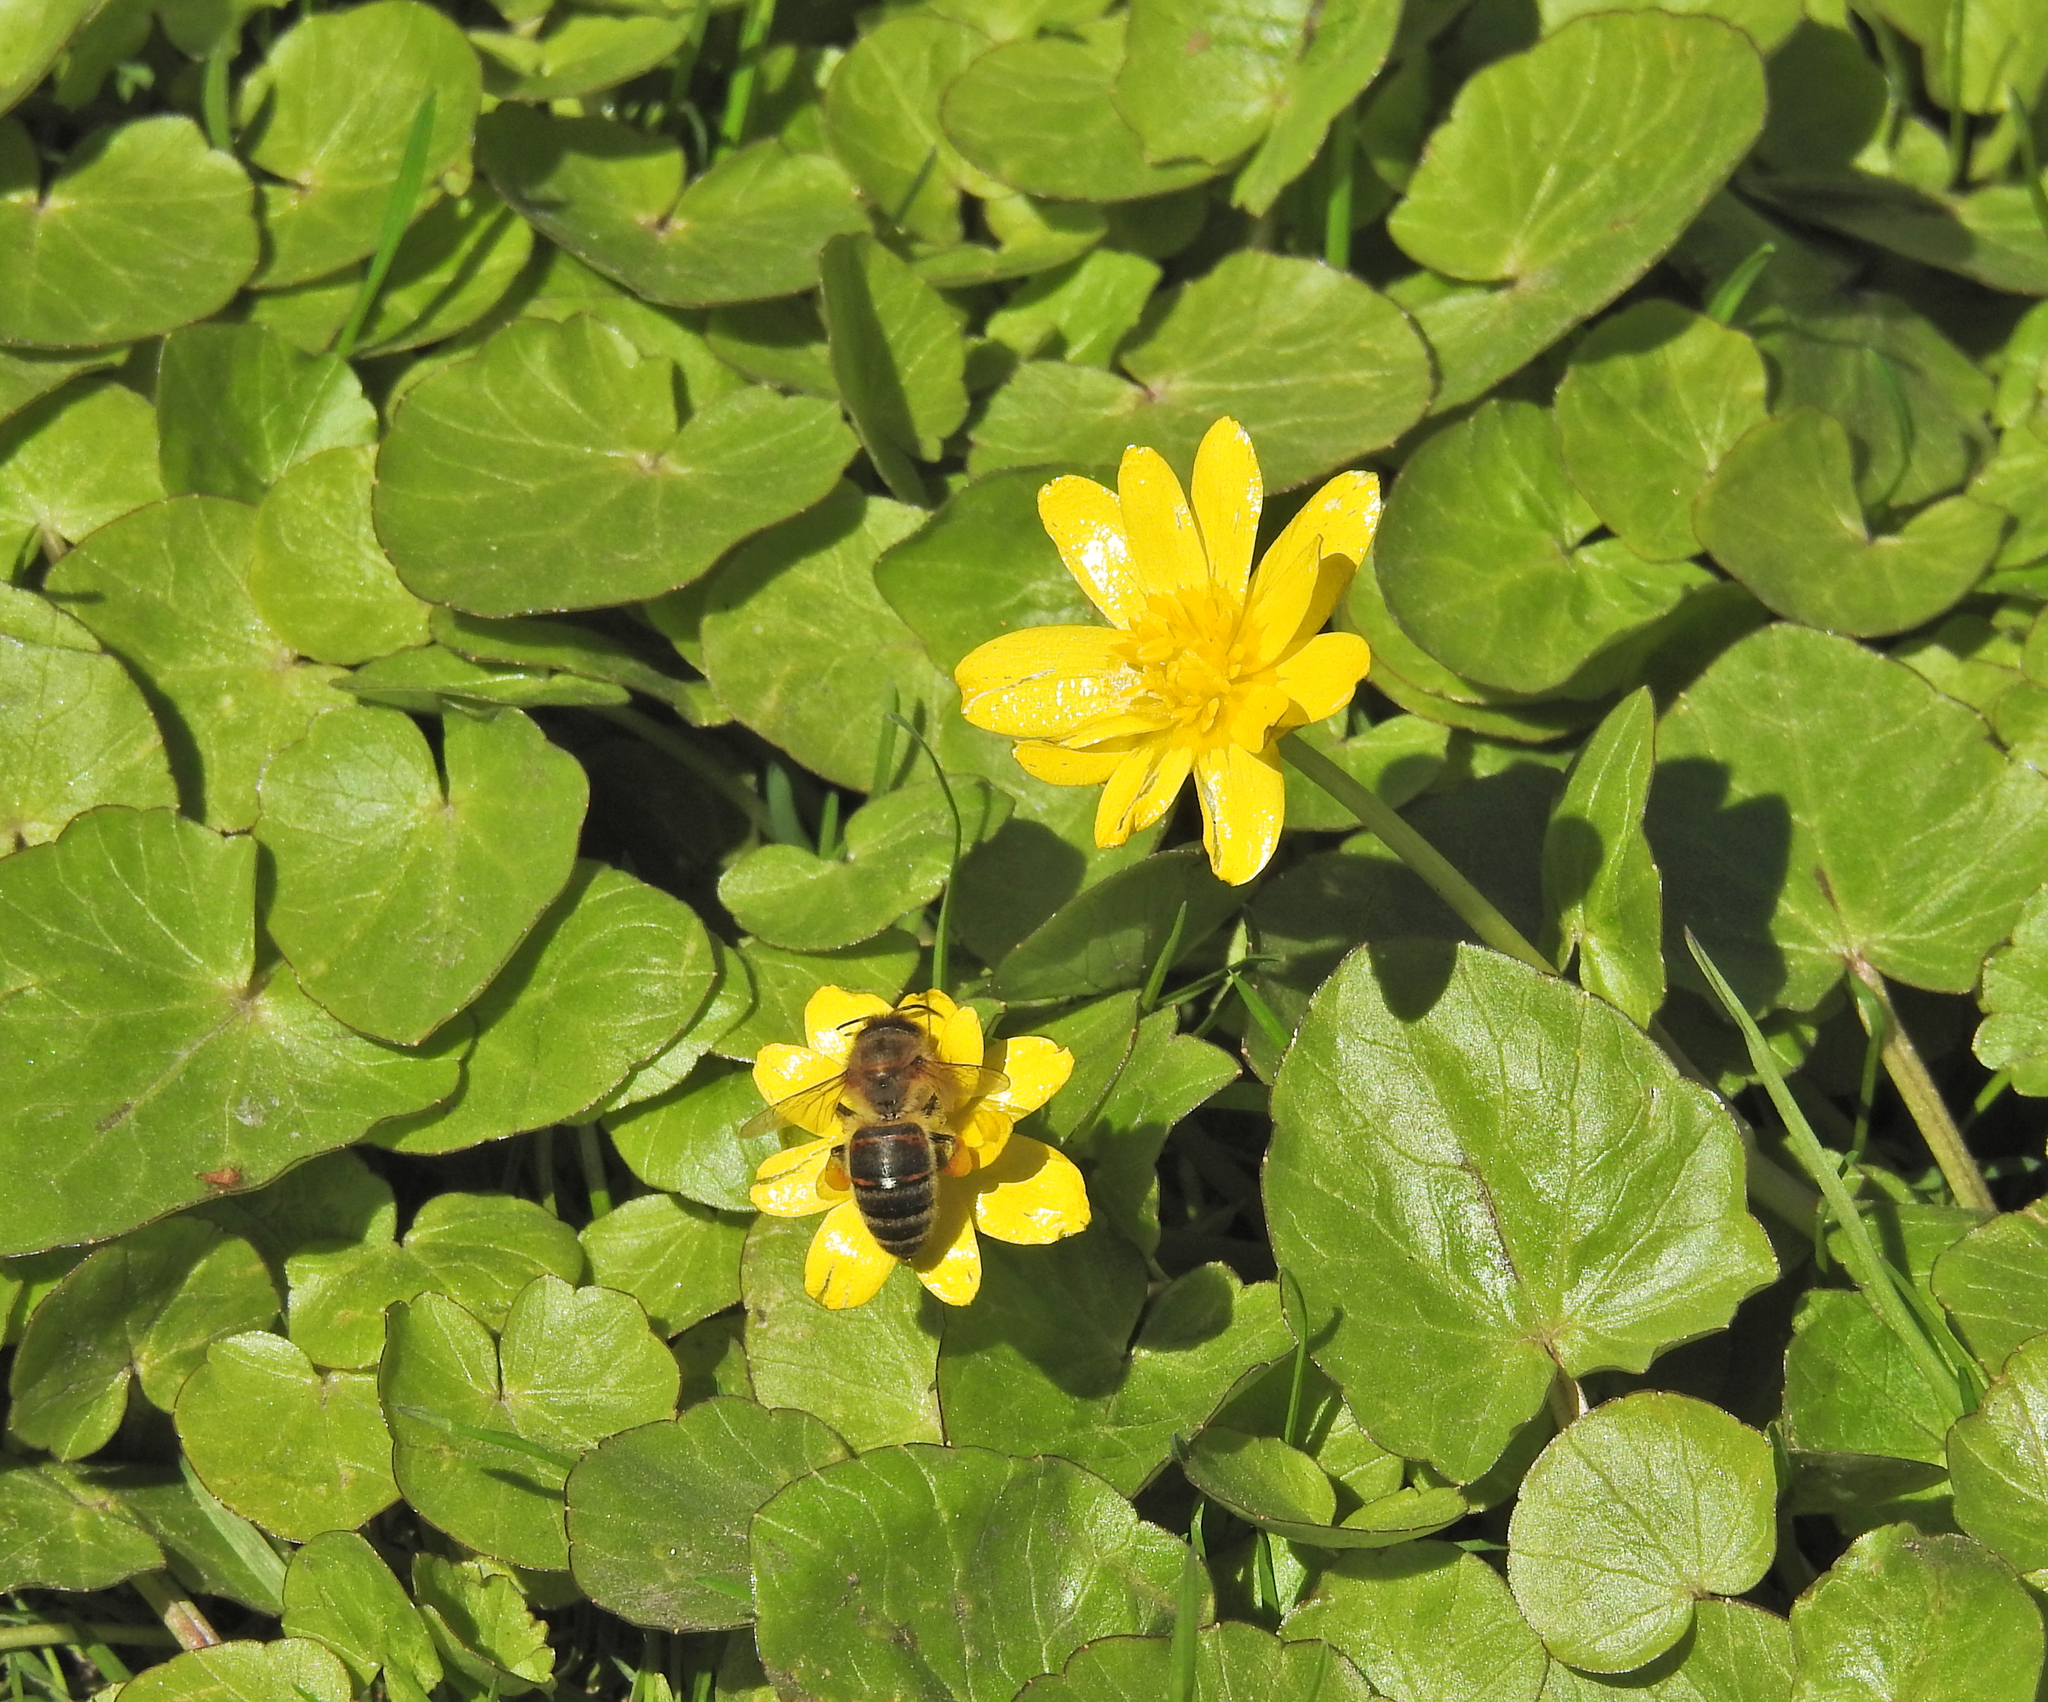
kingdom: Animalia
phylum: Arthropoda
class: Insecta
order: Hymenoptera
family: Apidae
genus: Apis
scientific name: Apis mellifera
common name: Honey bee
